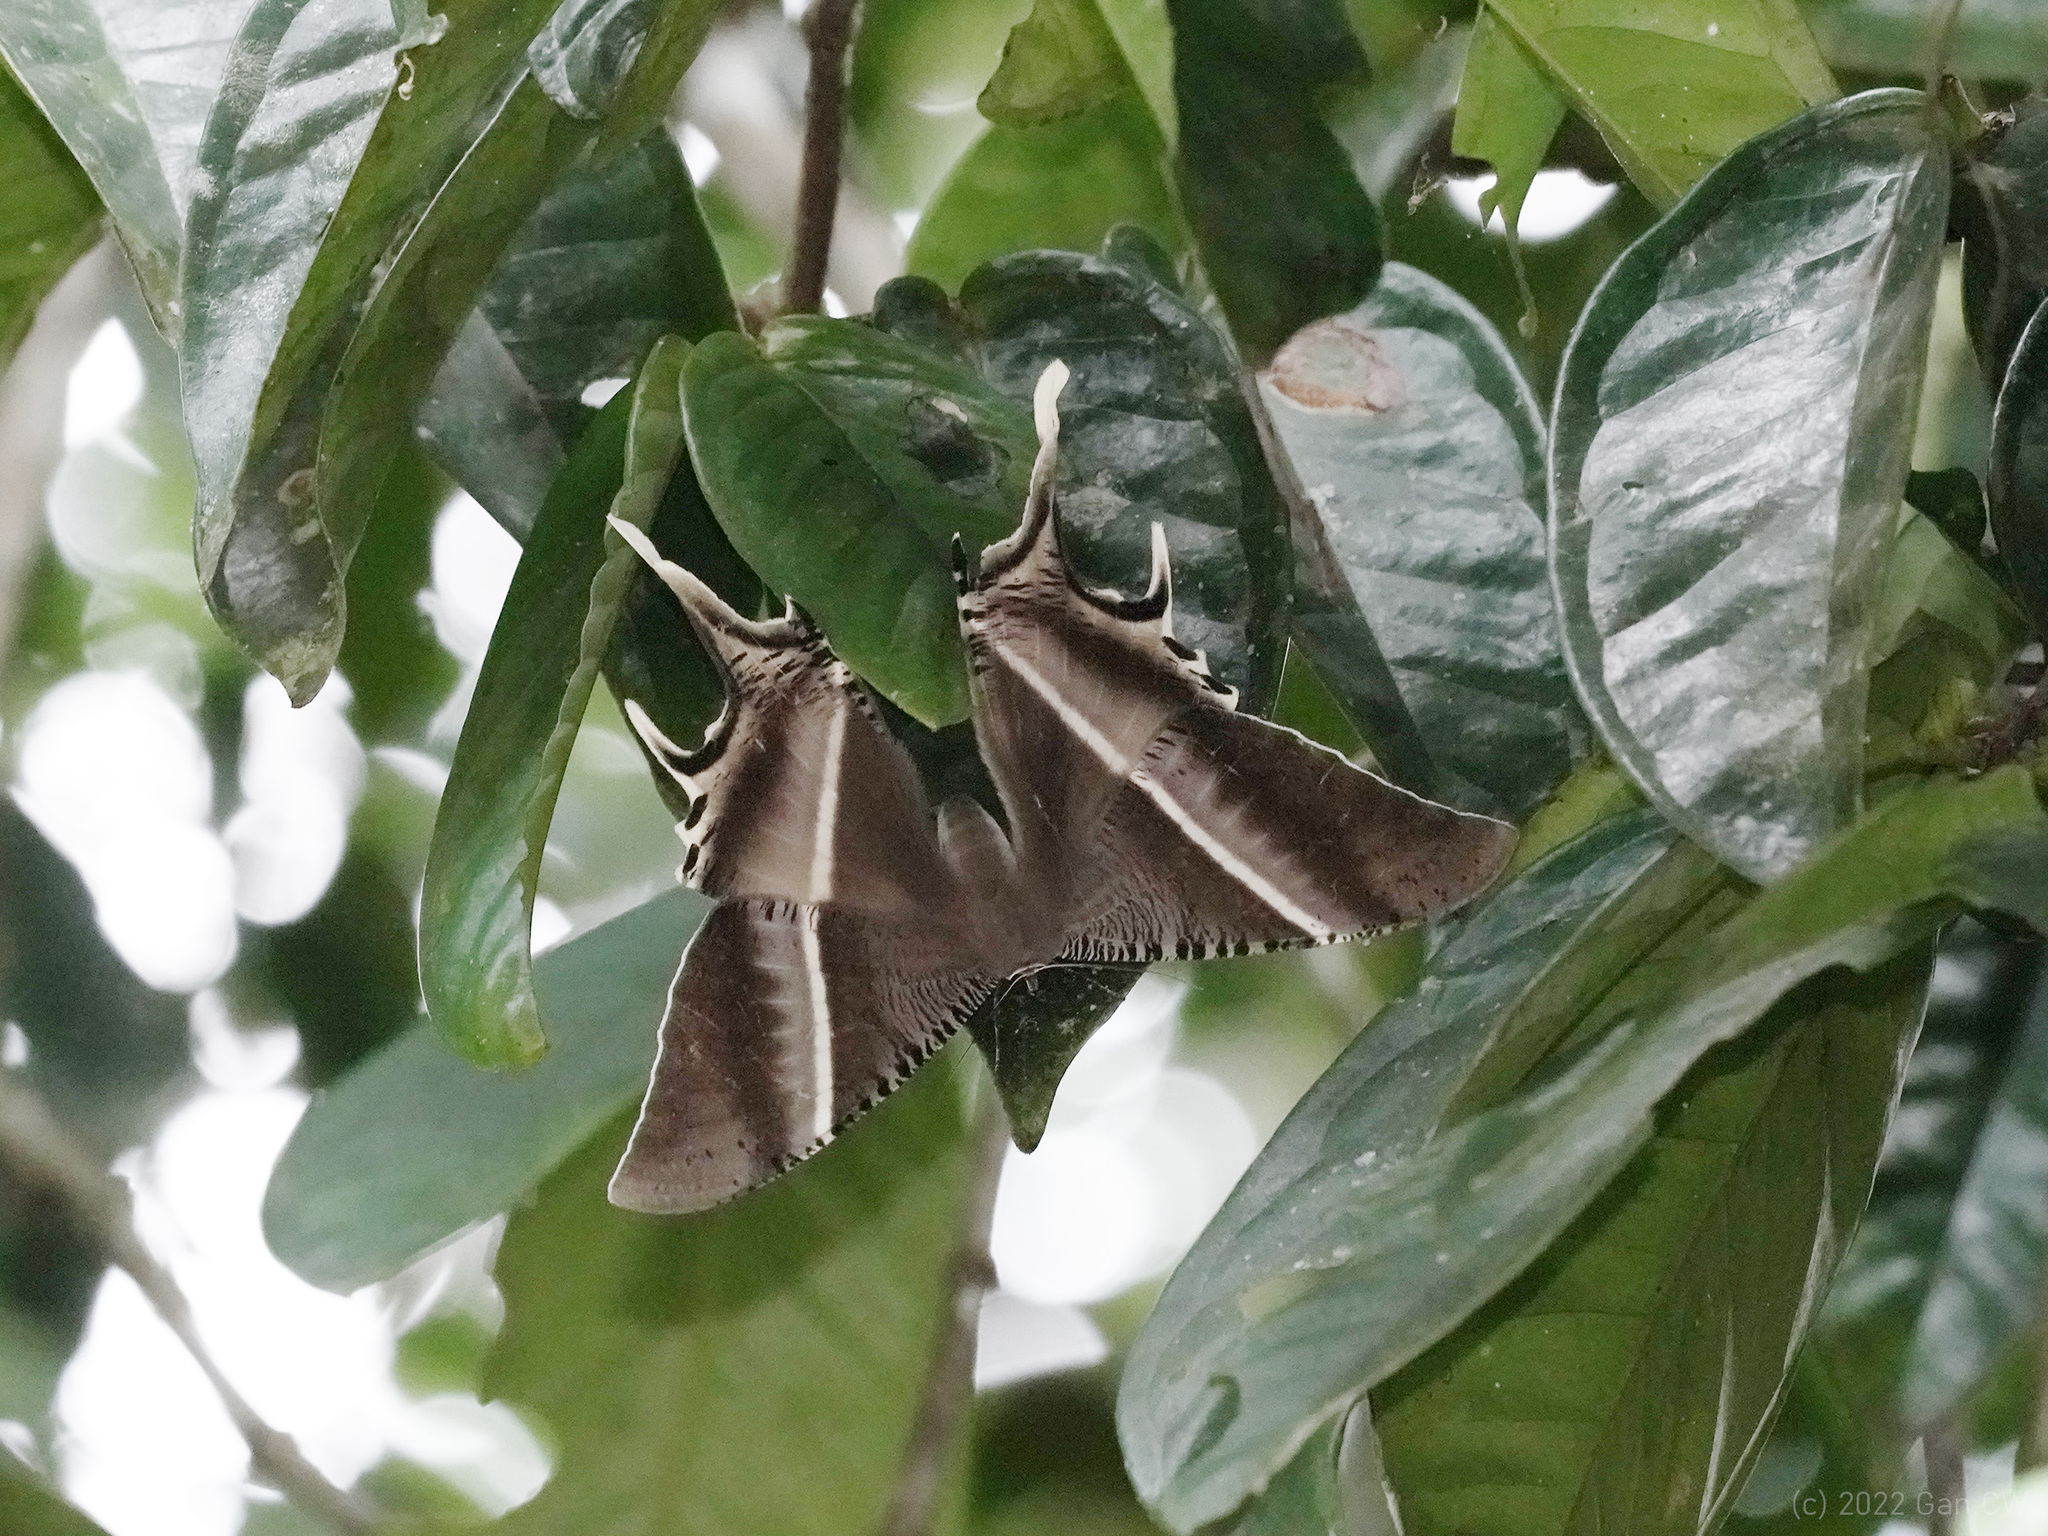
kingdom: Animalia
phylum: Arthropoda
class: Insecta
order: Lepidoptera
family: Uraniidae
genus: Lyssa
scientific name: Lyssa zampa
